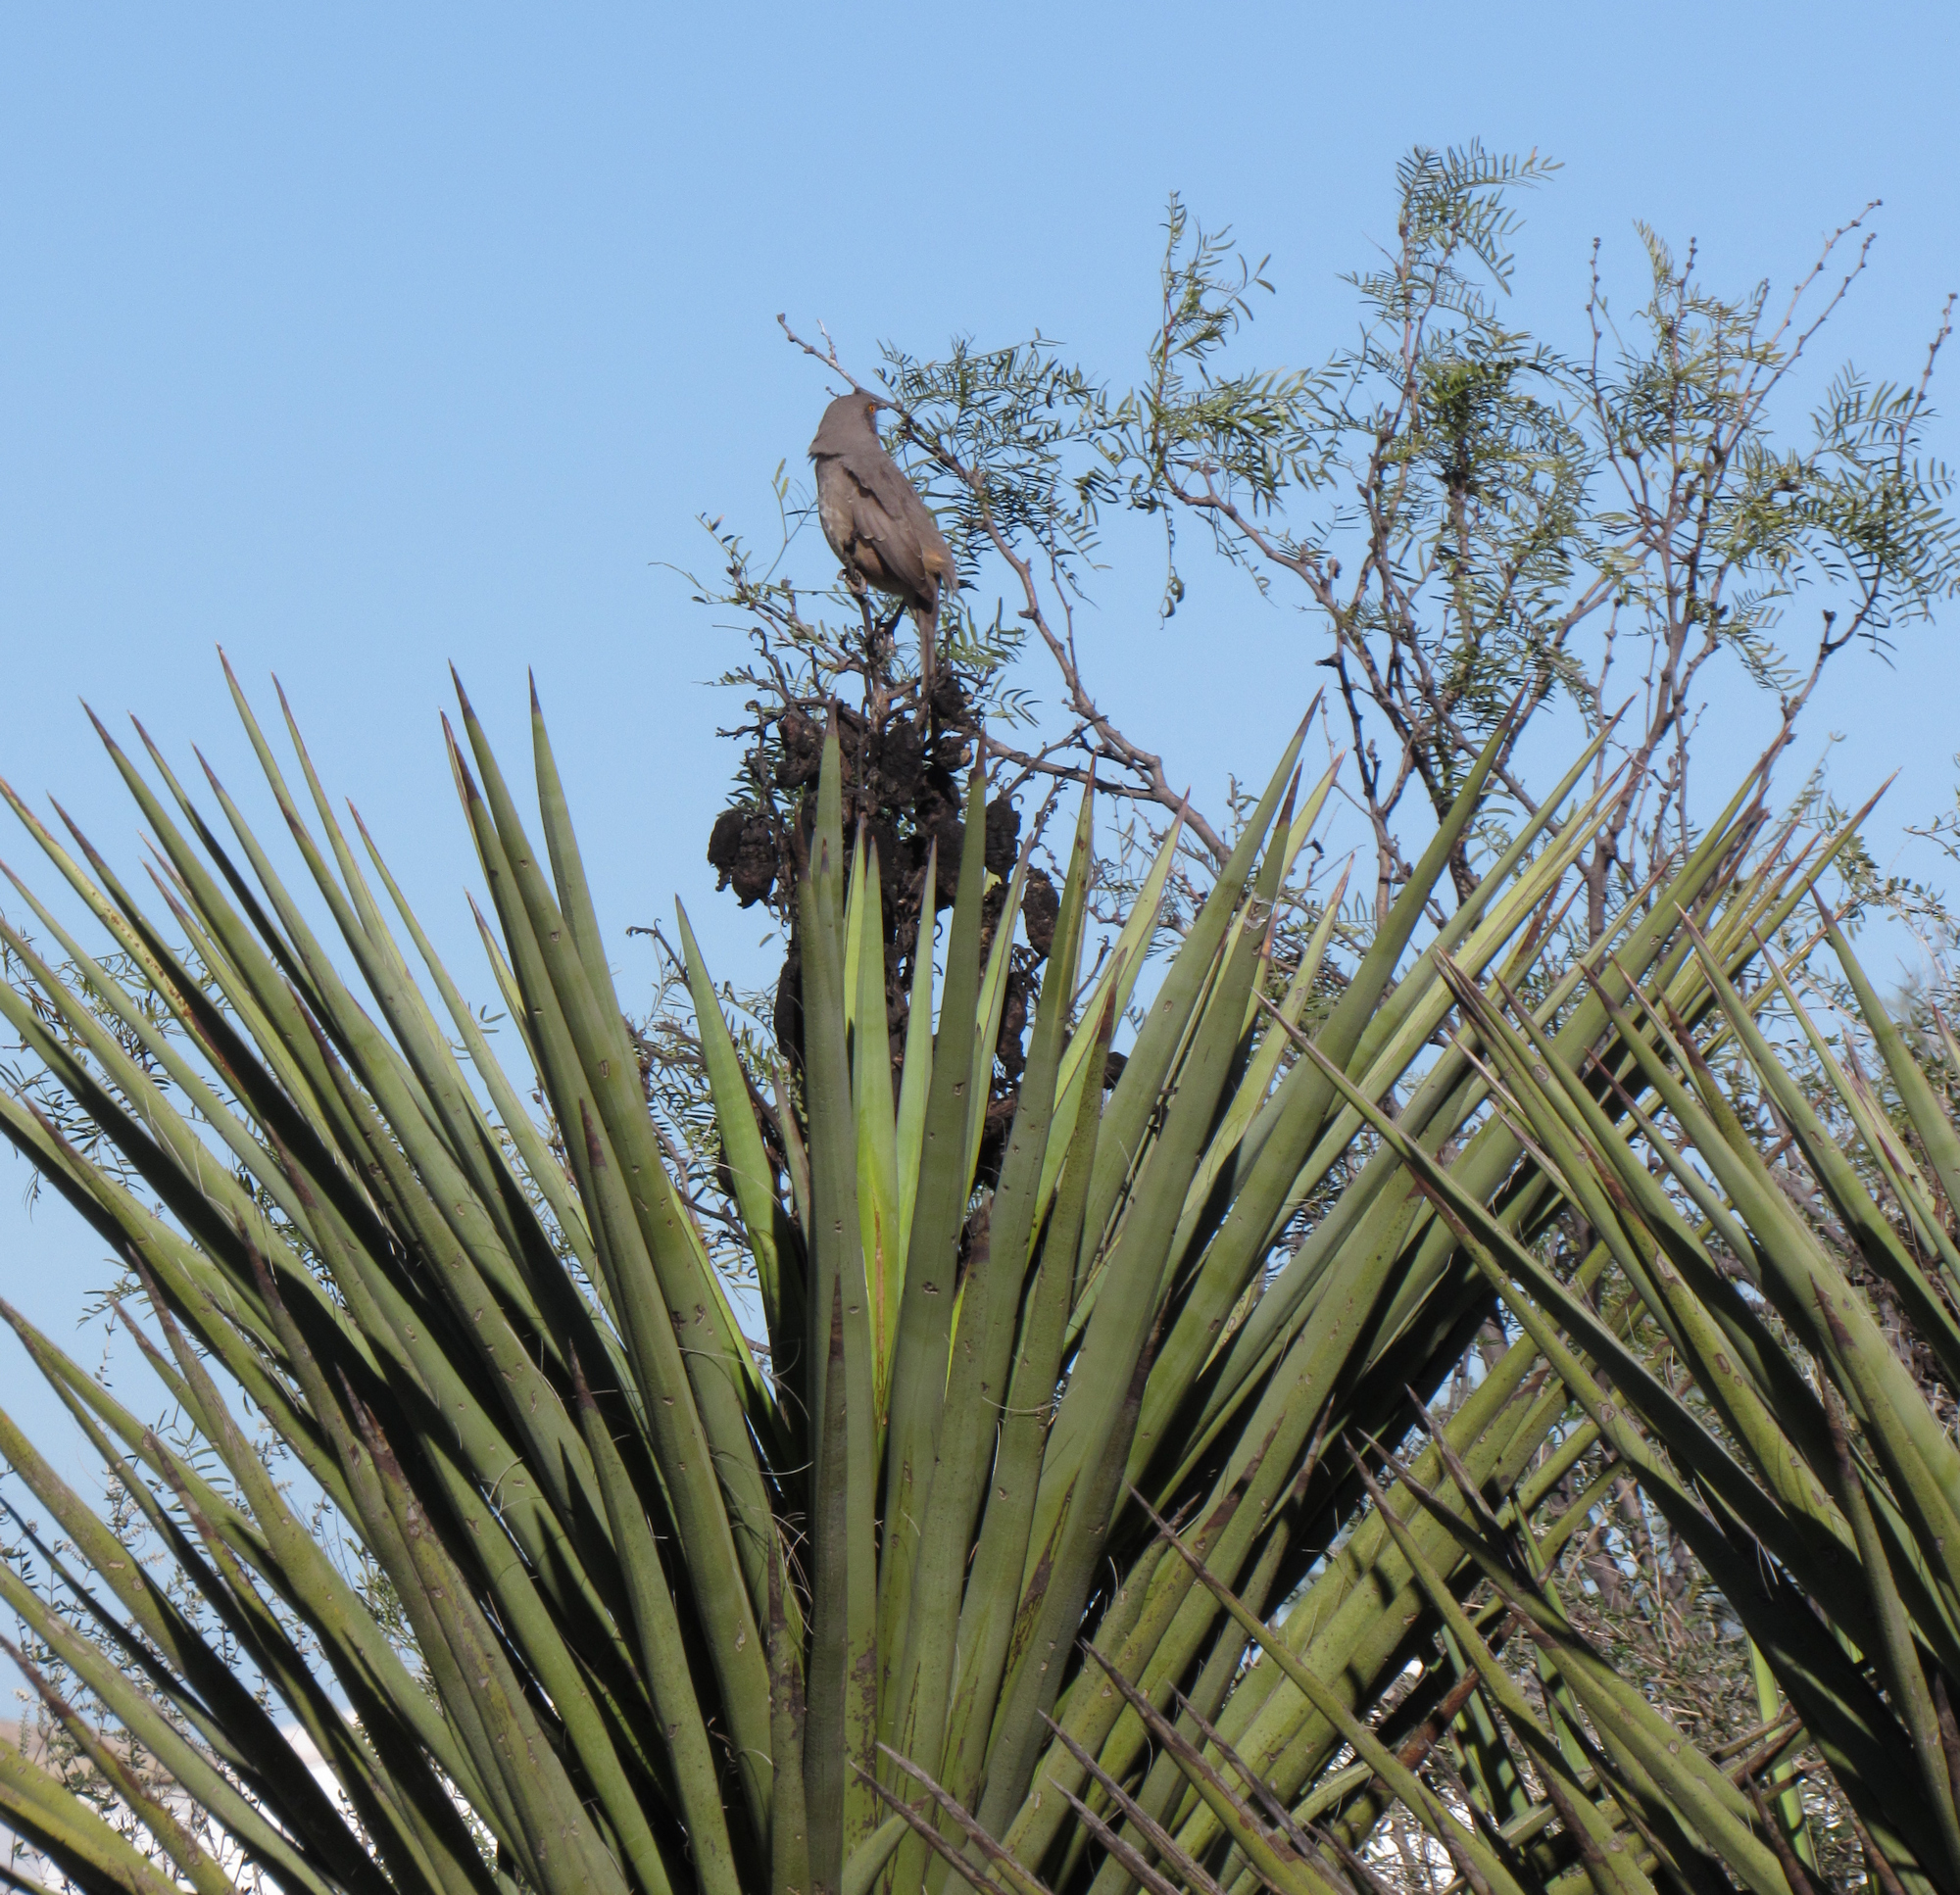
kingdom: Plantae
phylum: Tracheophyta
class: Liliopsida
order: Asparagales
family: Asparagaceae
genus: Yucca
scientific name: Yucca treculiana
